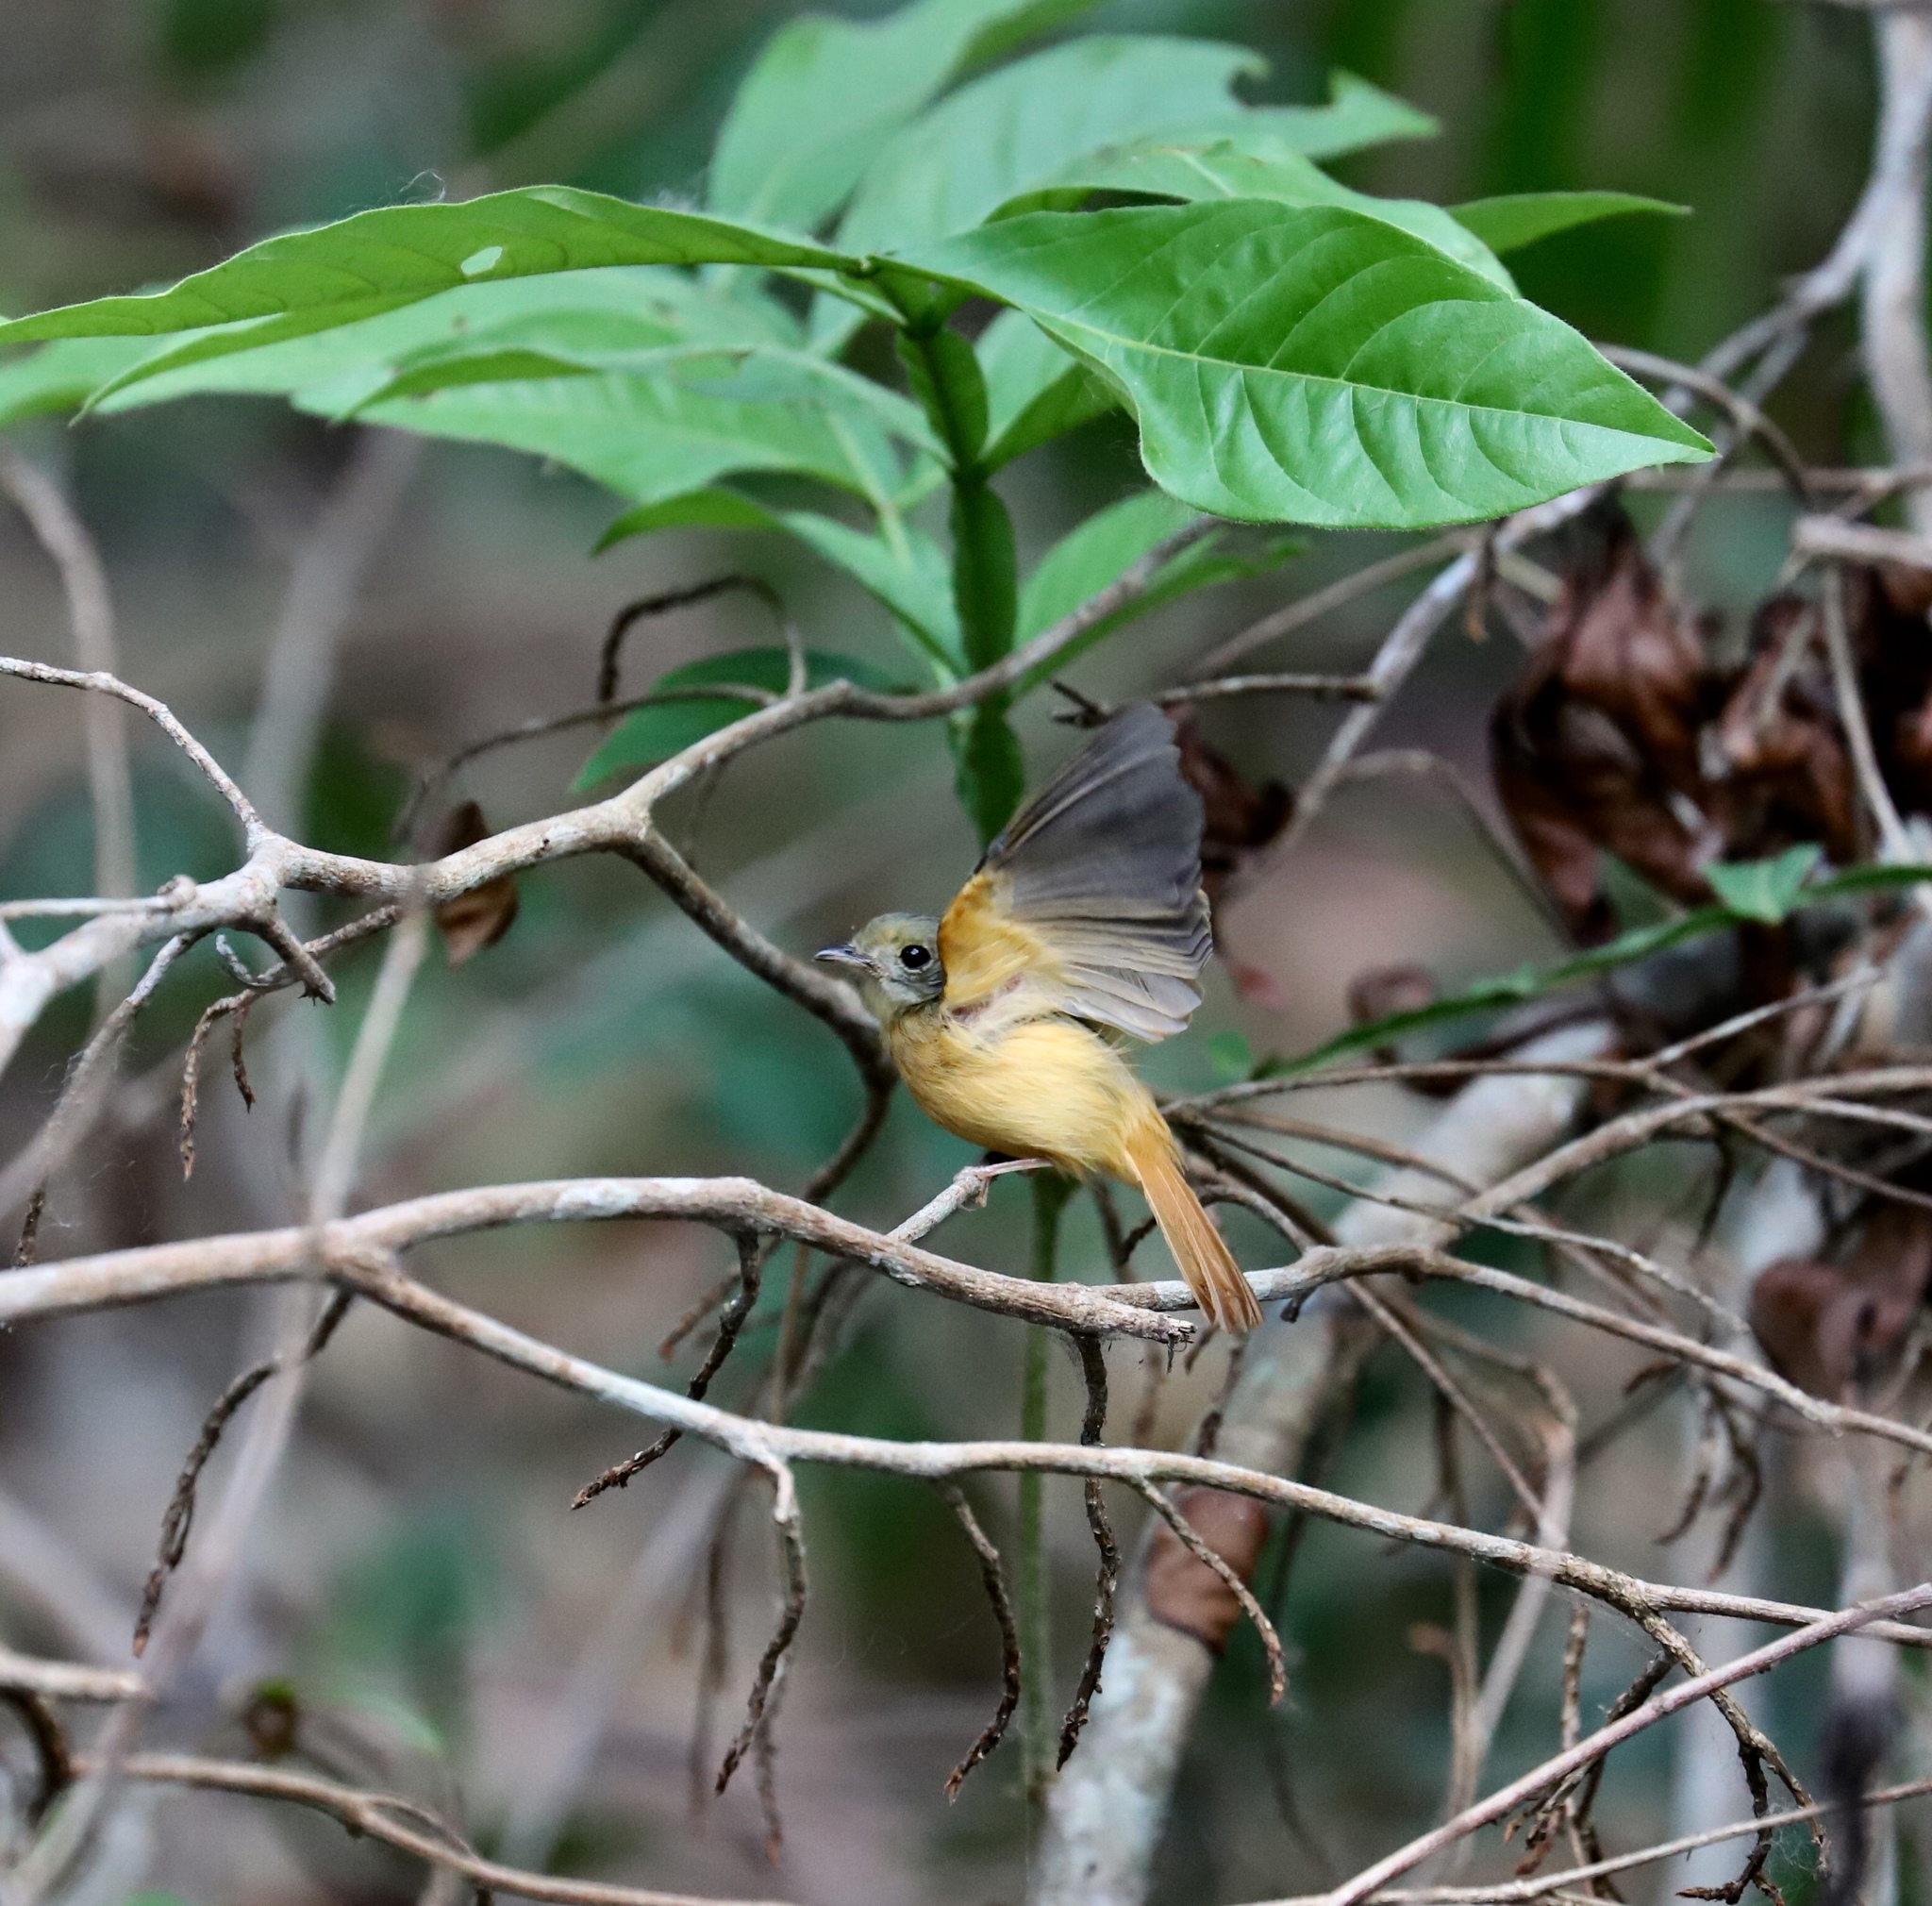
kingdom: Animalia
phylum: Chordata
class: Aves
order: Passeriformes
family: Tyrannidae
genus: Terenotriccus
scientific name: Terenotriccus erythrurus
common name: Ruddy-tailed flycatcher
